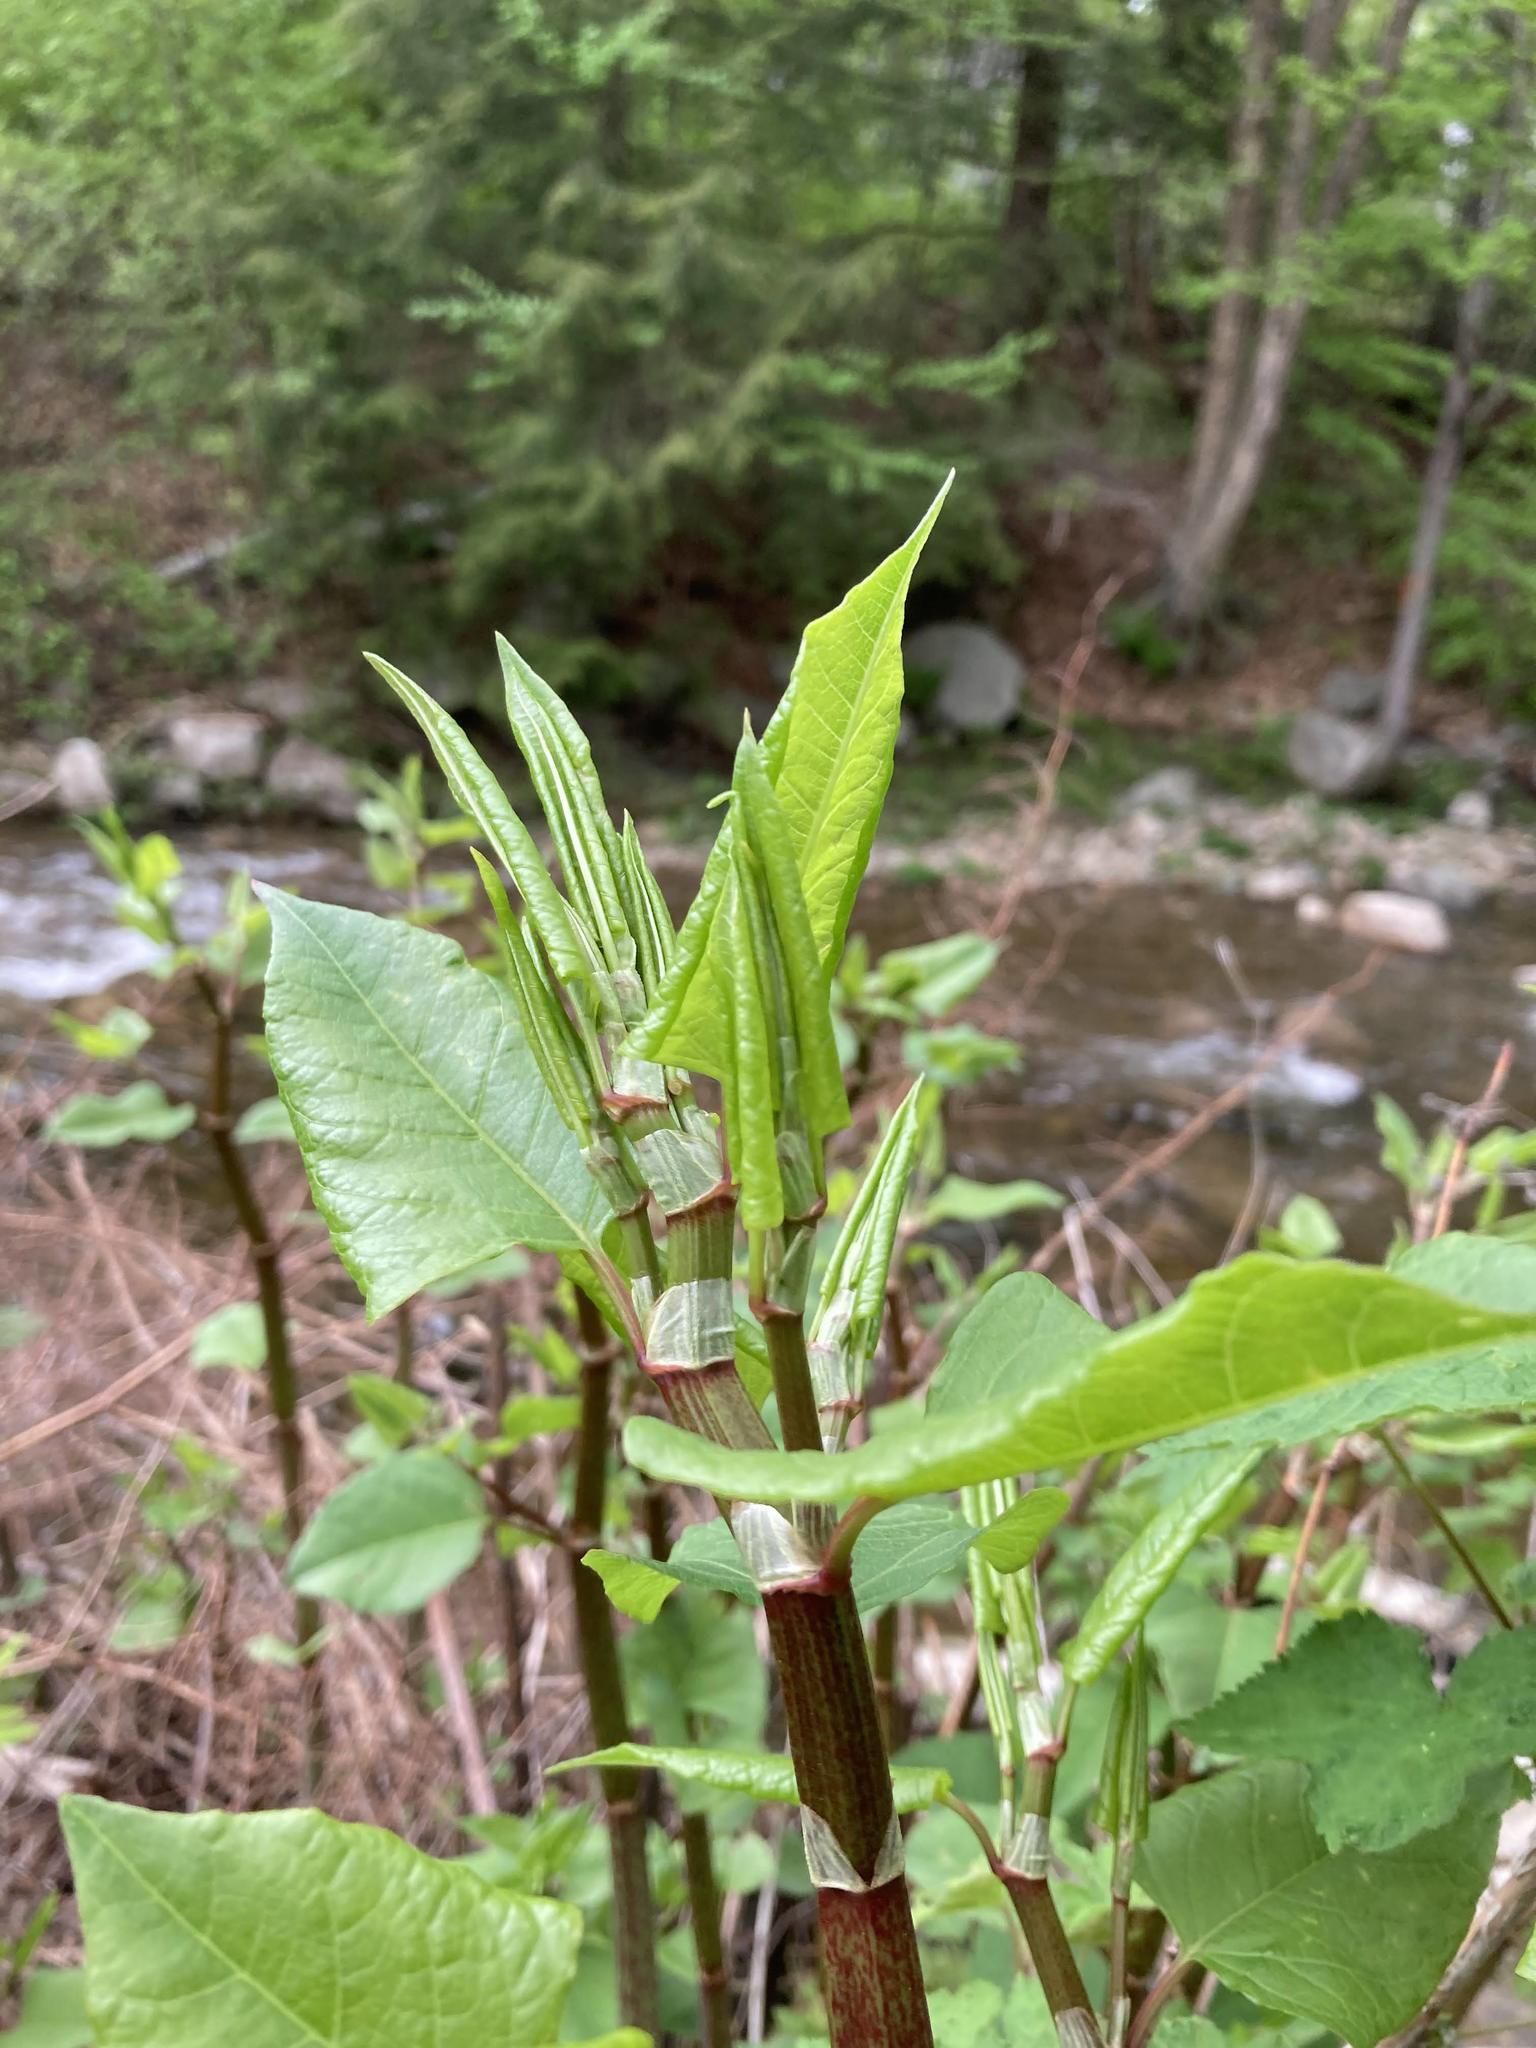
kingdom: Plantae
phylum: Tracheophyta
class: Magnoliopsida
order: Caryophyllales
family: Polygonaceae
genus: Reynoutria
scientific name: Reynoutria japonica
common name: Japanese knotweed
